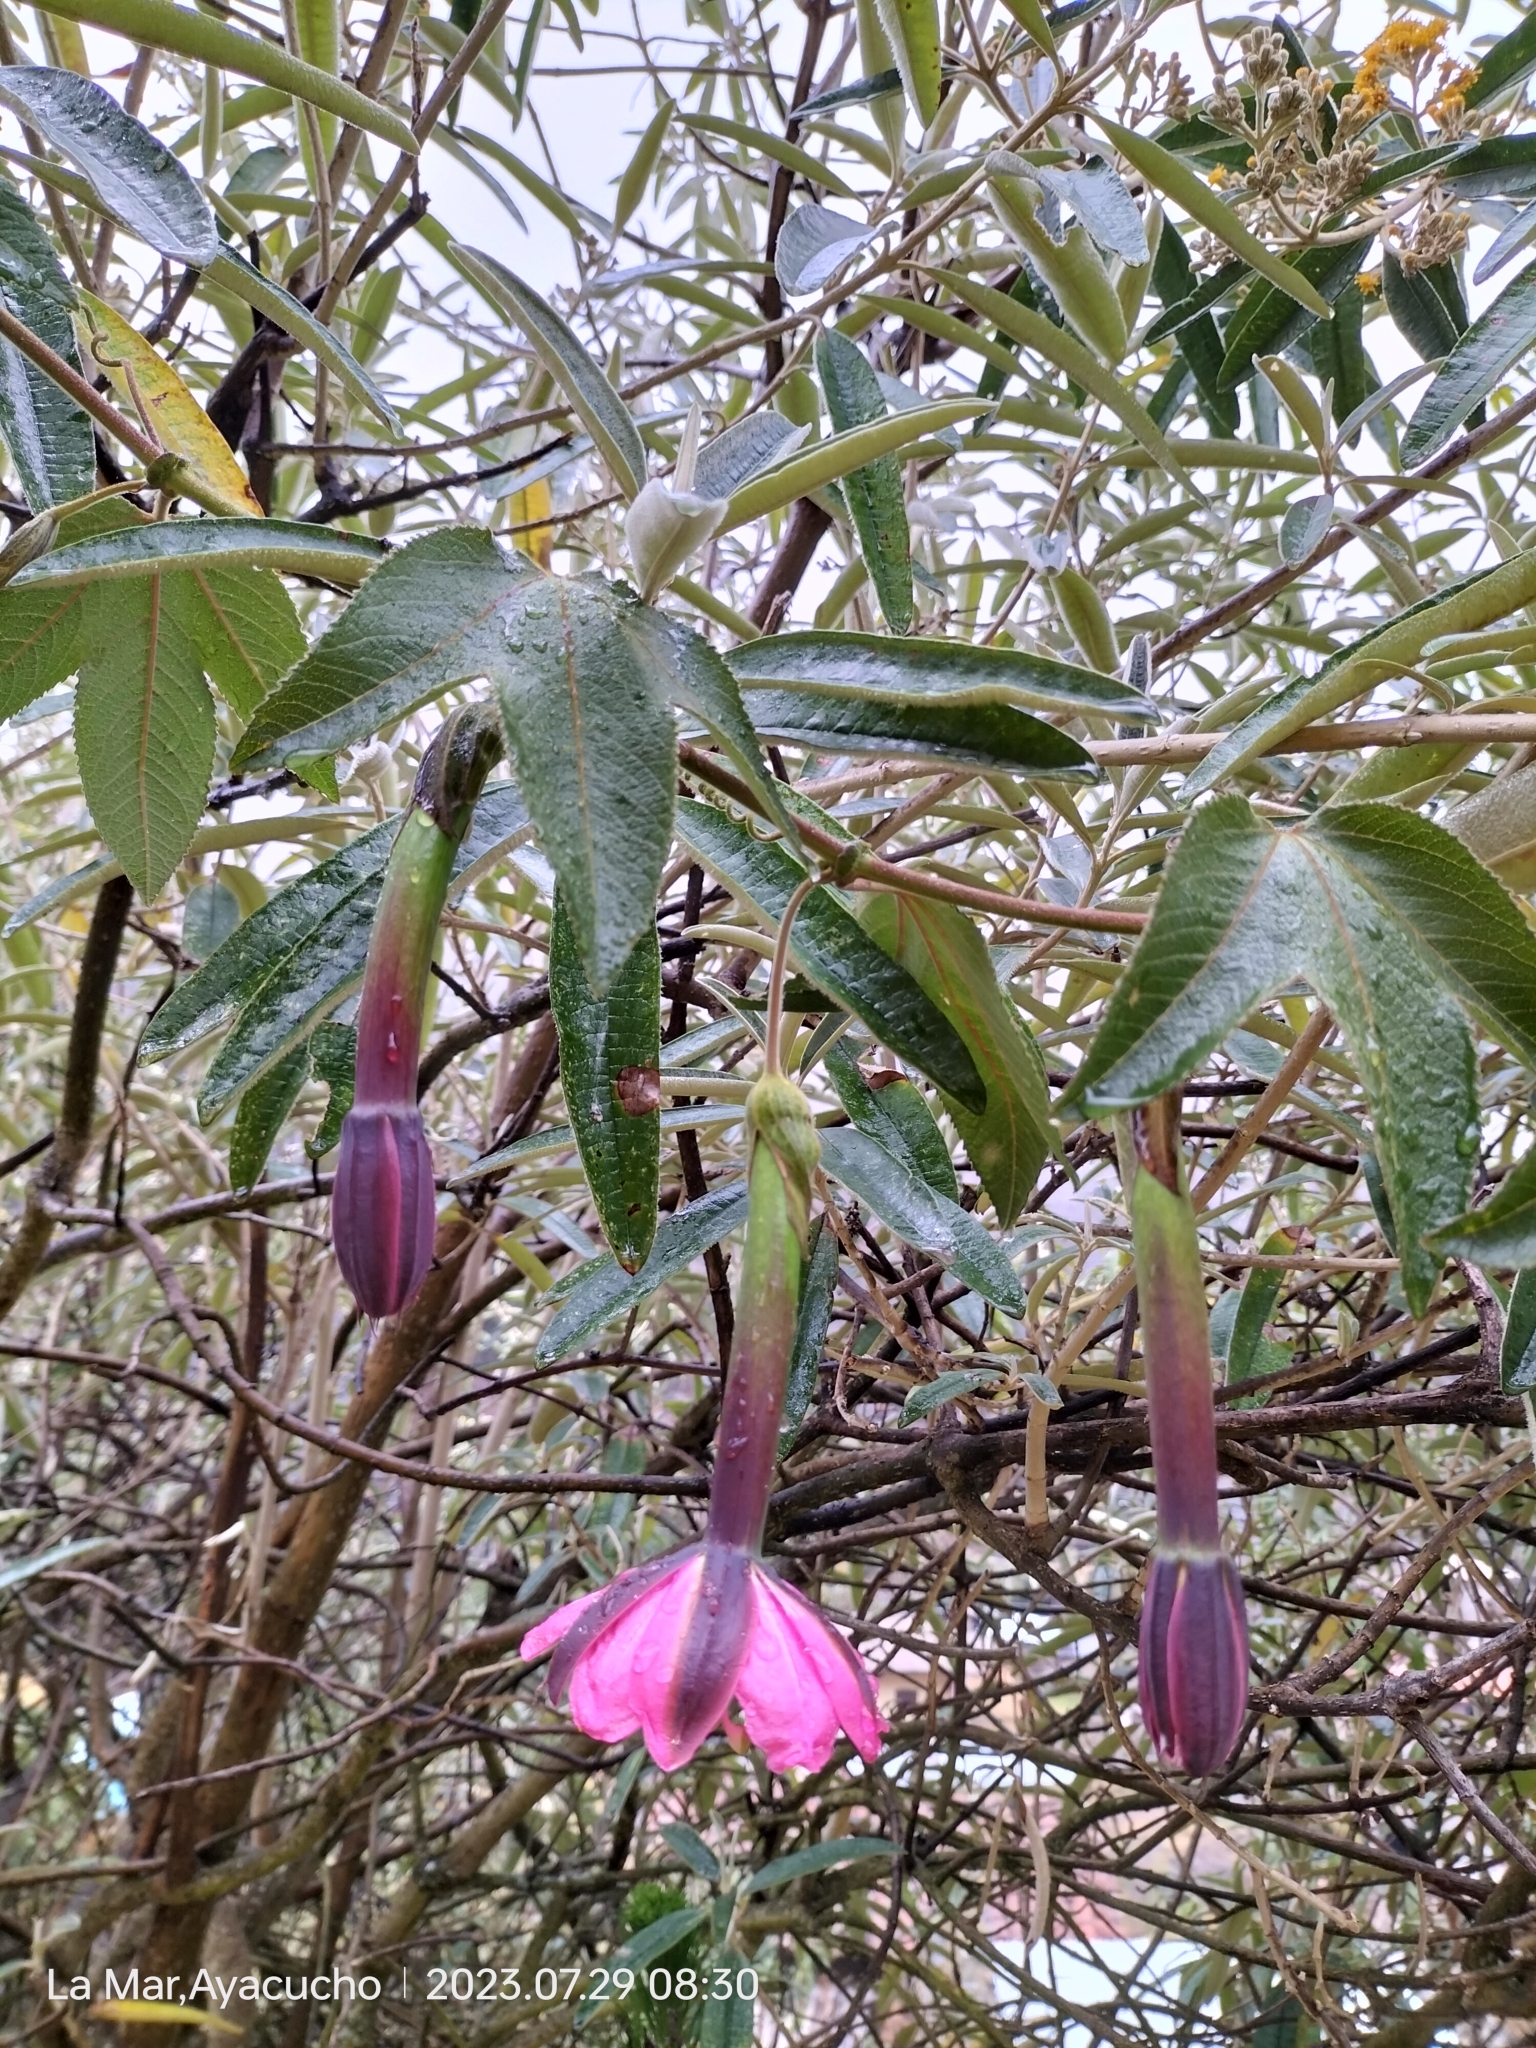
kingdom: Plantae
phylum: Tracheophyta
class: Magnoliopsida
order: Malpighiales
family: Passifloraceae
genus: Passiflora
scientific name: Passiflora tripartita
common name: Banana poka
